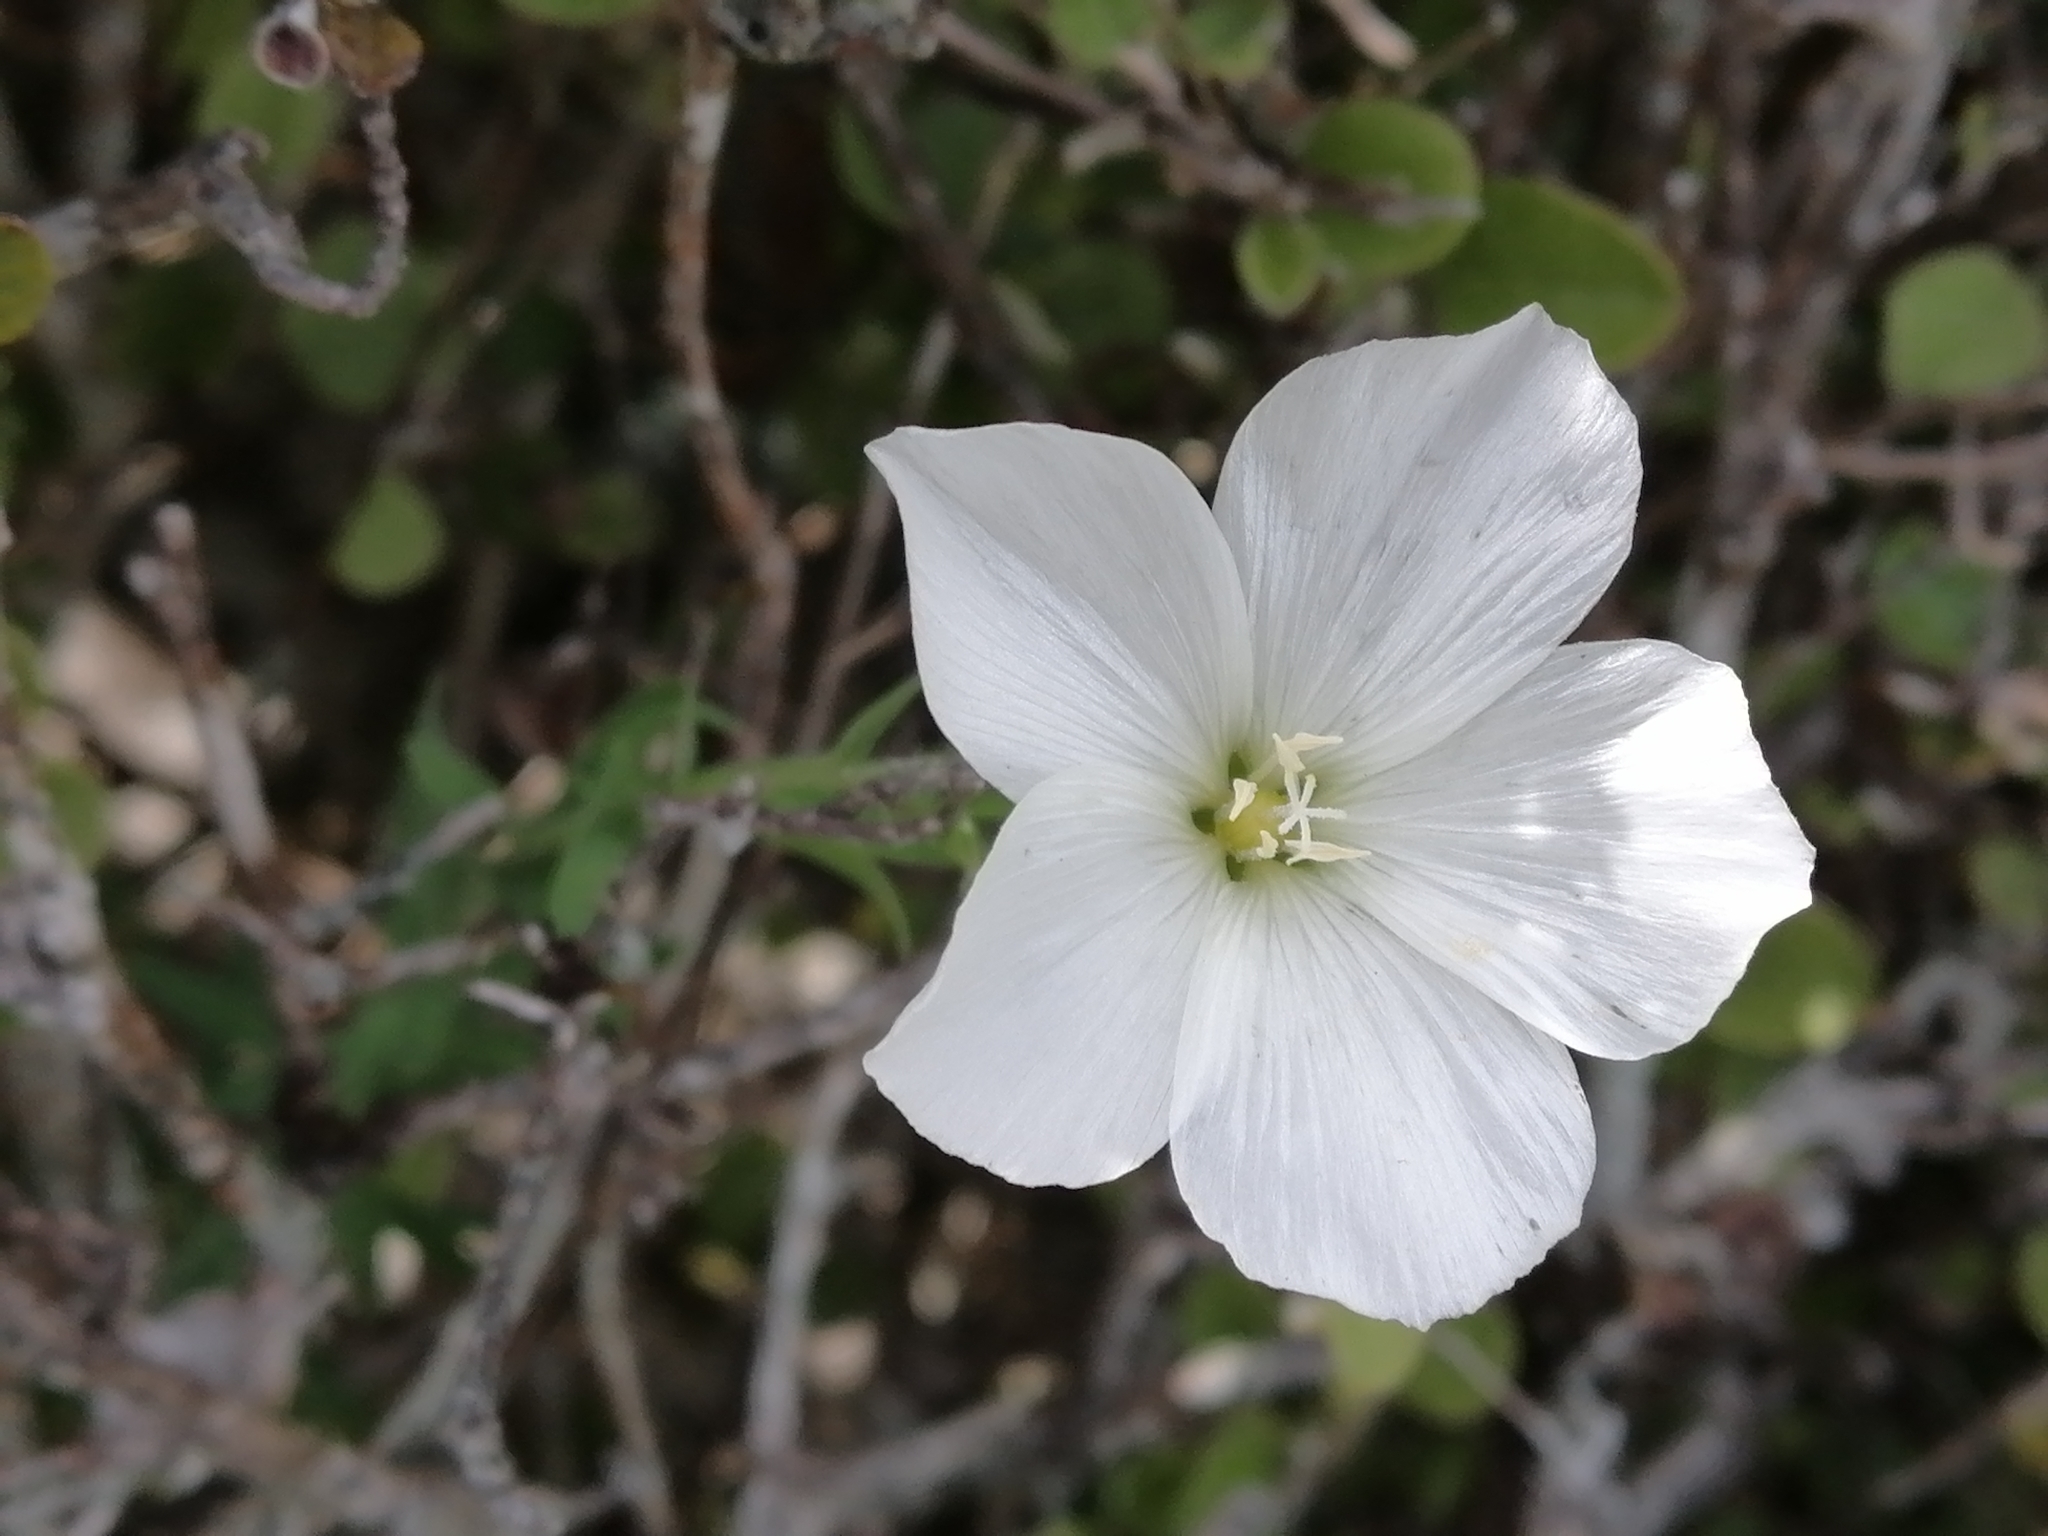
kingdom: Plantae
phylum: Tracheophyta
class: Magnoliopsida
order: Malpighiales
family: Linaceae
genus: Linum
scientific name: Linum monogynum
